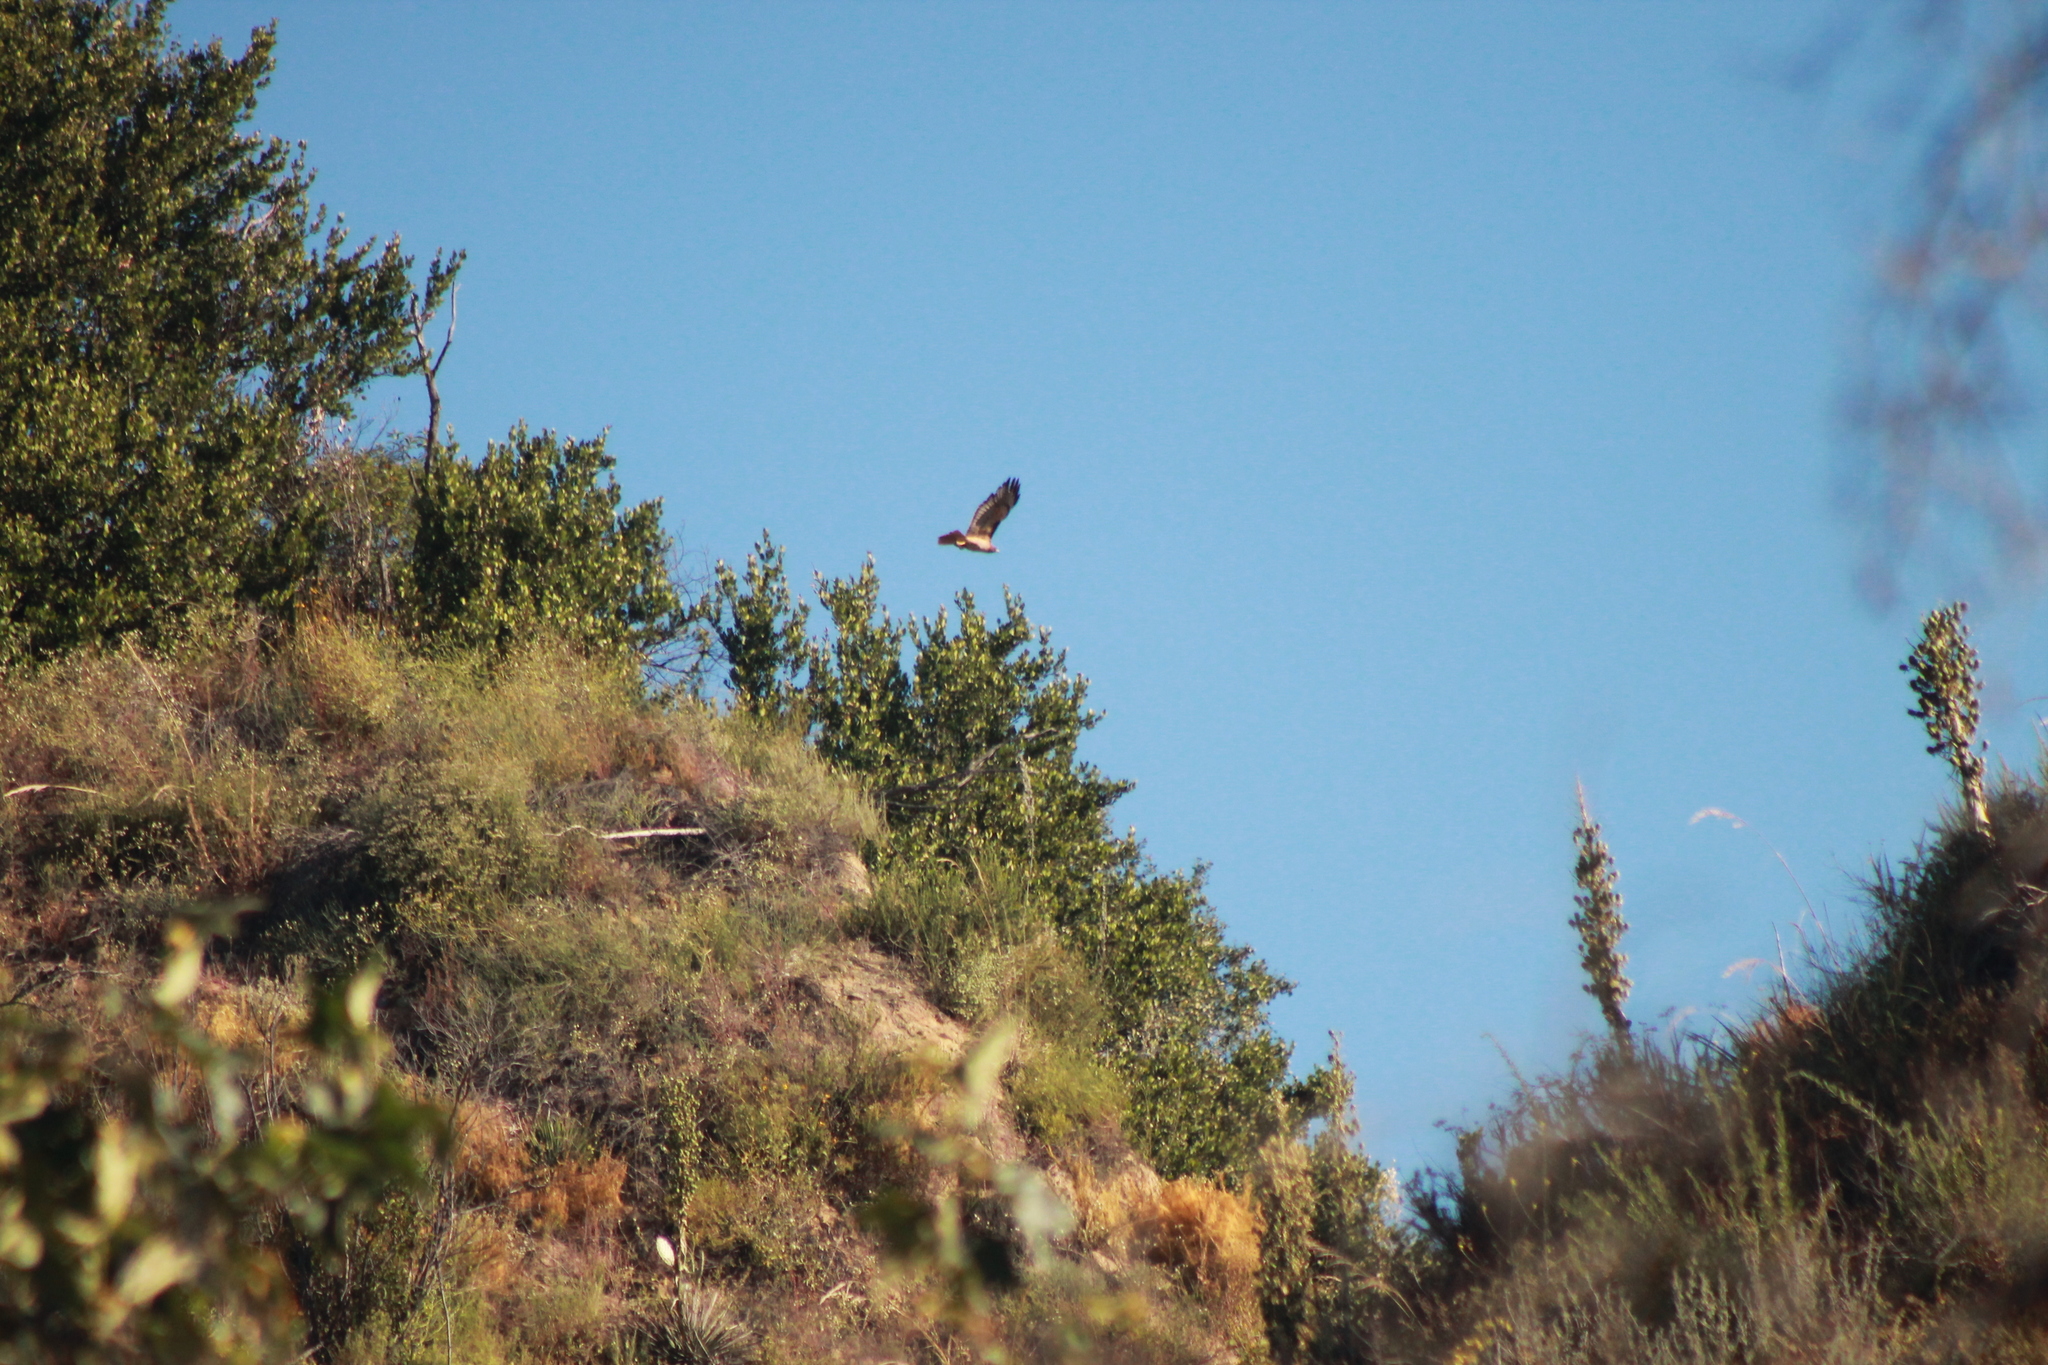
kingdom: Animalia
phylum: Chordata
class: Aves
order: Accipitriformes
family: Accipitridae
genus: Buteo
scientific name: Buteo jamaicensis
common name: Red-tailed hawk
